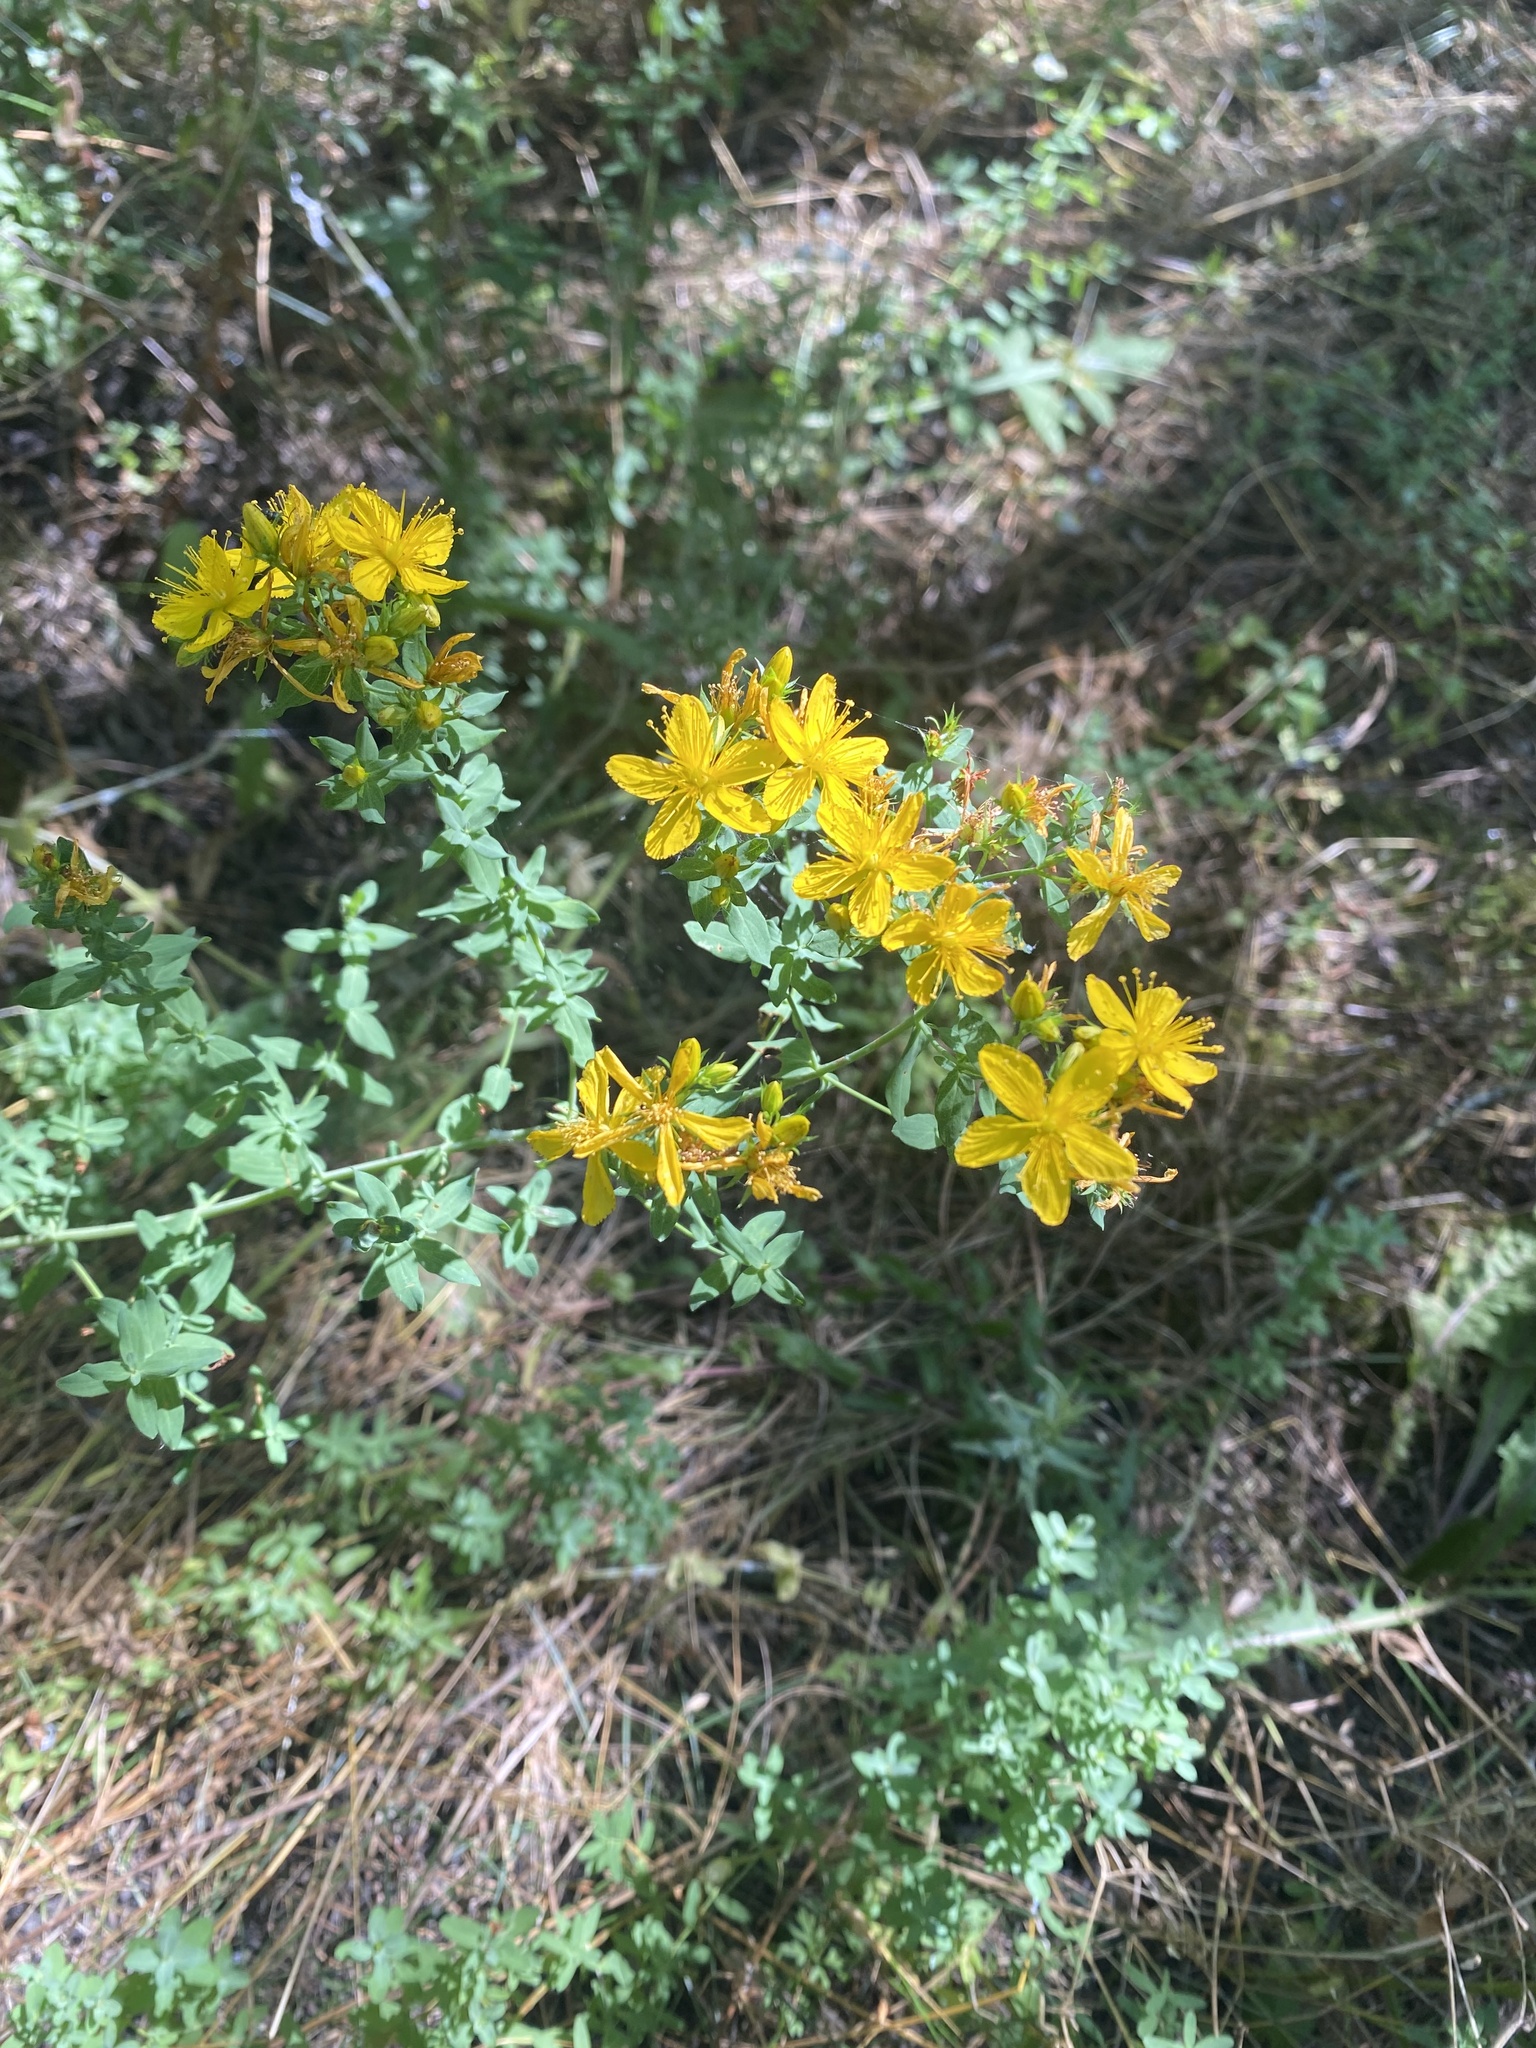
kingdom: Plantae
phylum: Tracheophyta
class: Magnoliopsida
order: Malpighiales
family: Hypericaceae
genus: Hypericum
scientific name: Hypericum perforatum
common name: Common st. johnswort
